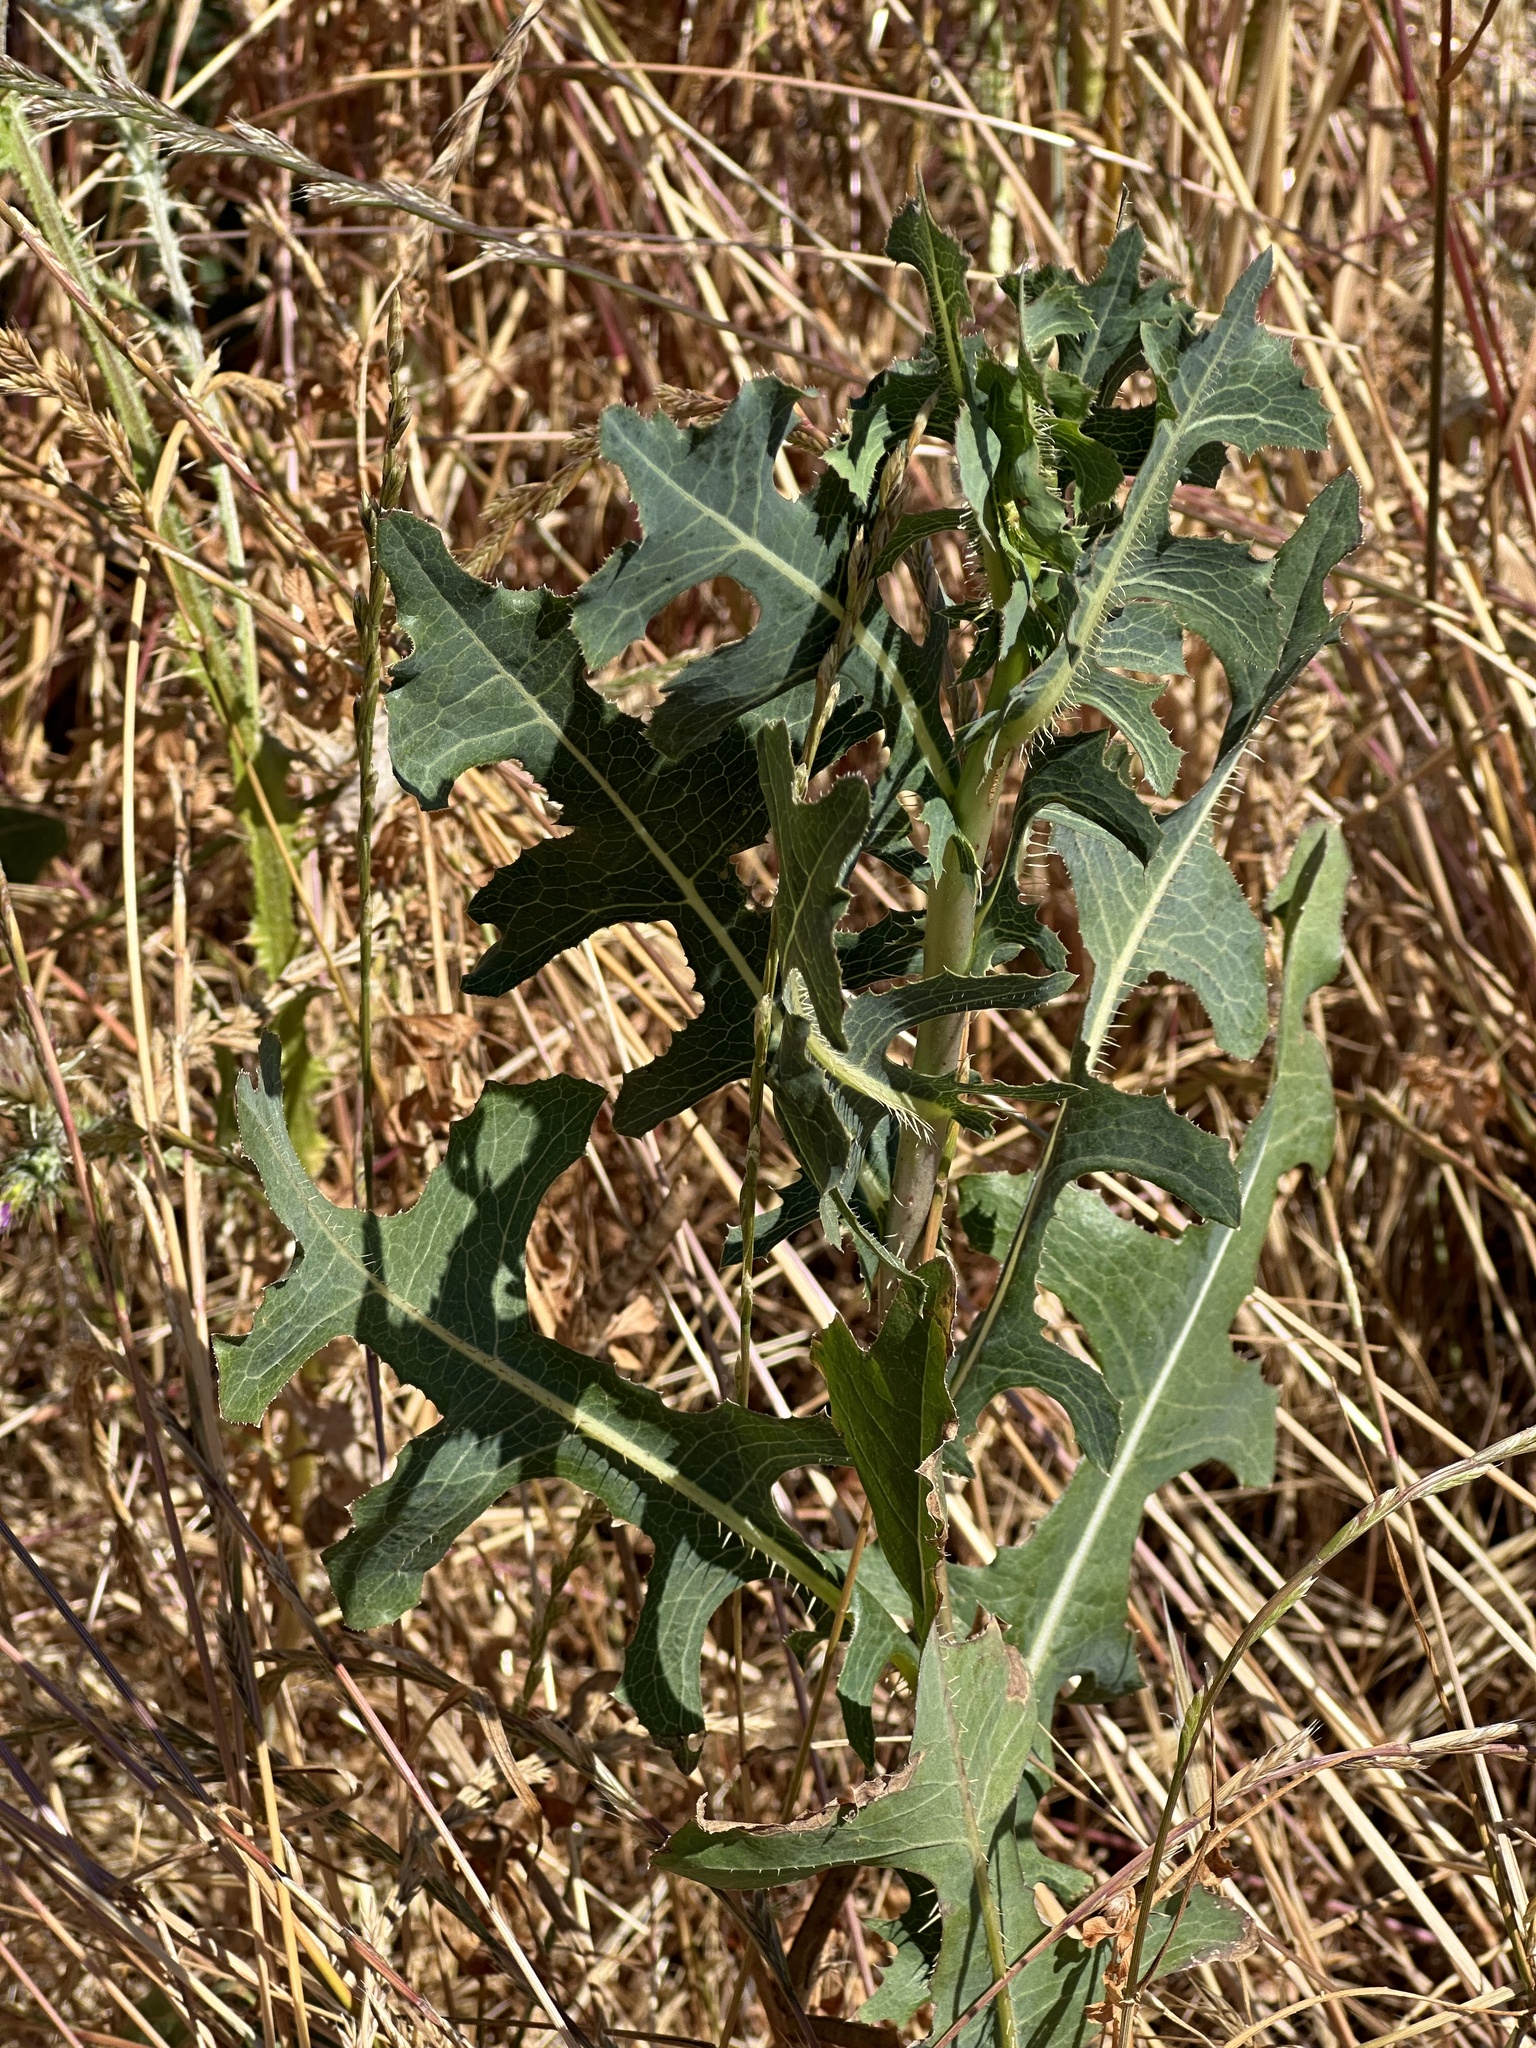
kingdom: Plantae
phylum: Tracheophyta
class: Magnoliopsida
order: Asterales
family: Asteraceae
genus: Lactuca
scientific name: Lactuca serriola
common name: Prickly lettuce
